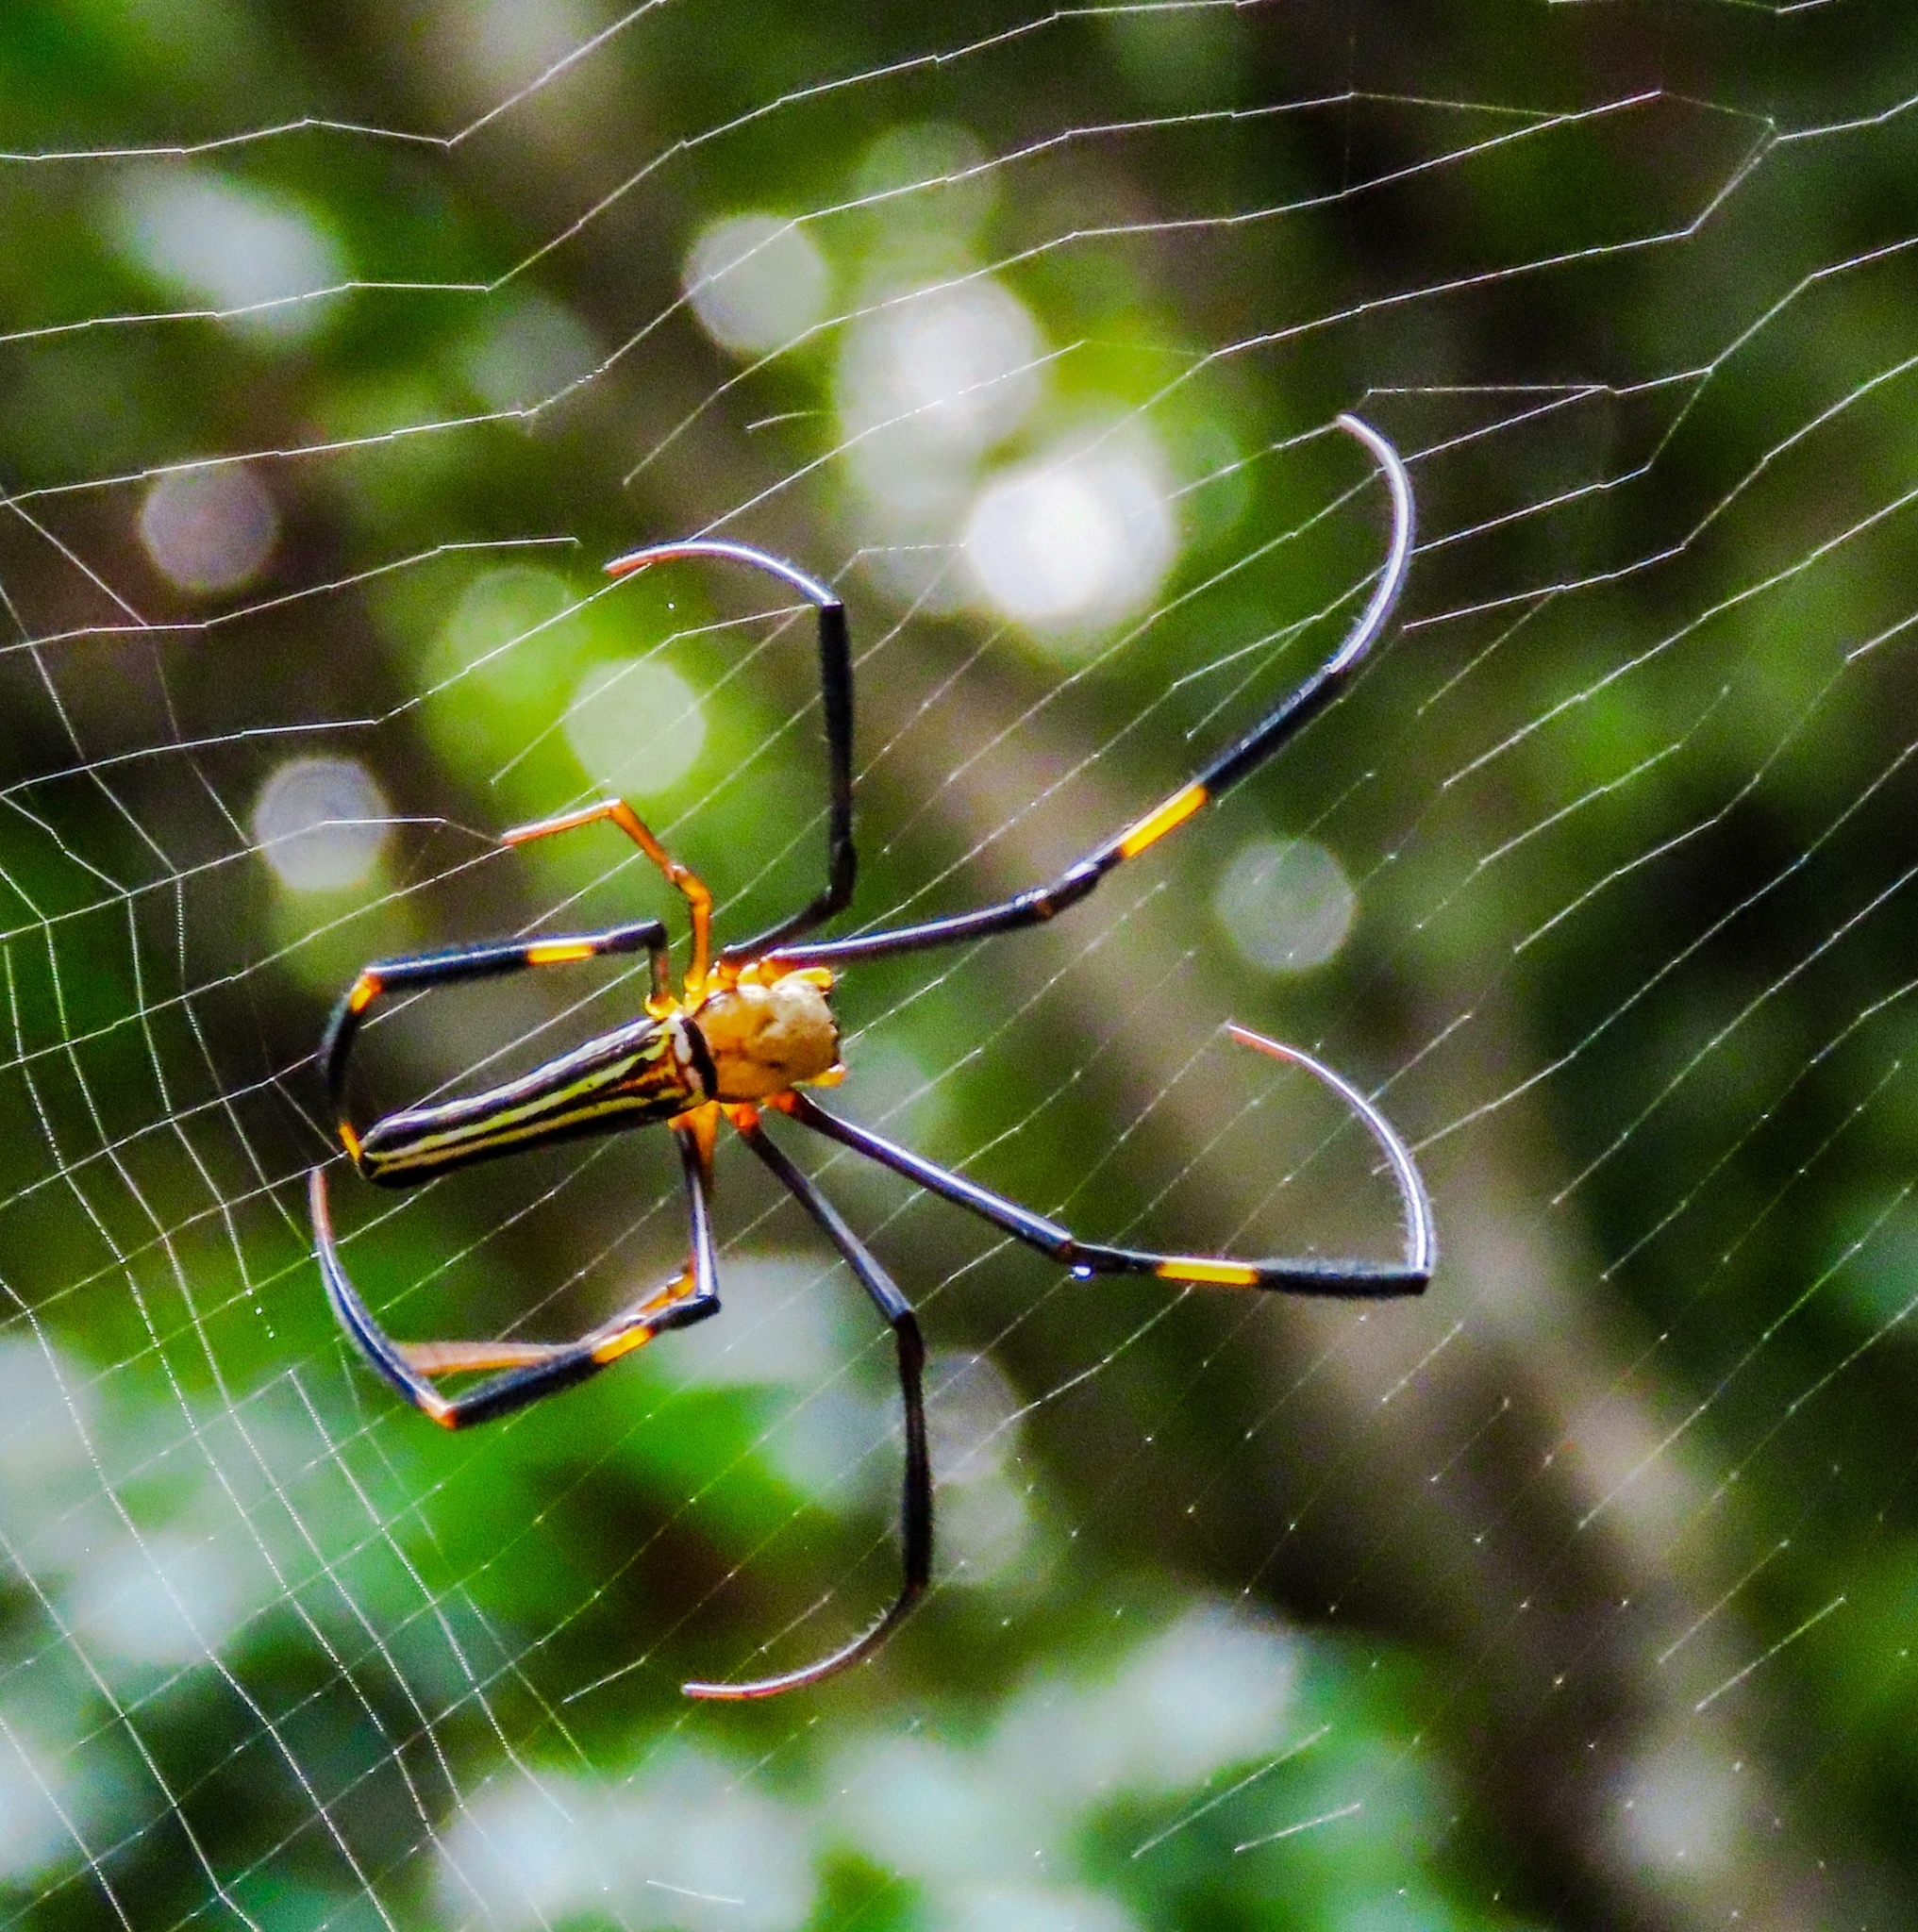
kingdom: Animalia
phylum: Arthropoda
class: Arachnida
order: Araneae
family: Araneidae
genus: Nephila
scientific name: Nephila pilipes
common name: Giant golden orb weaver
